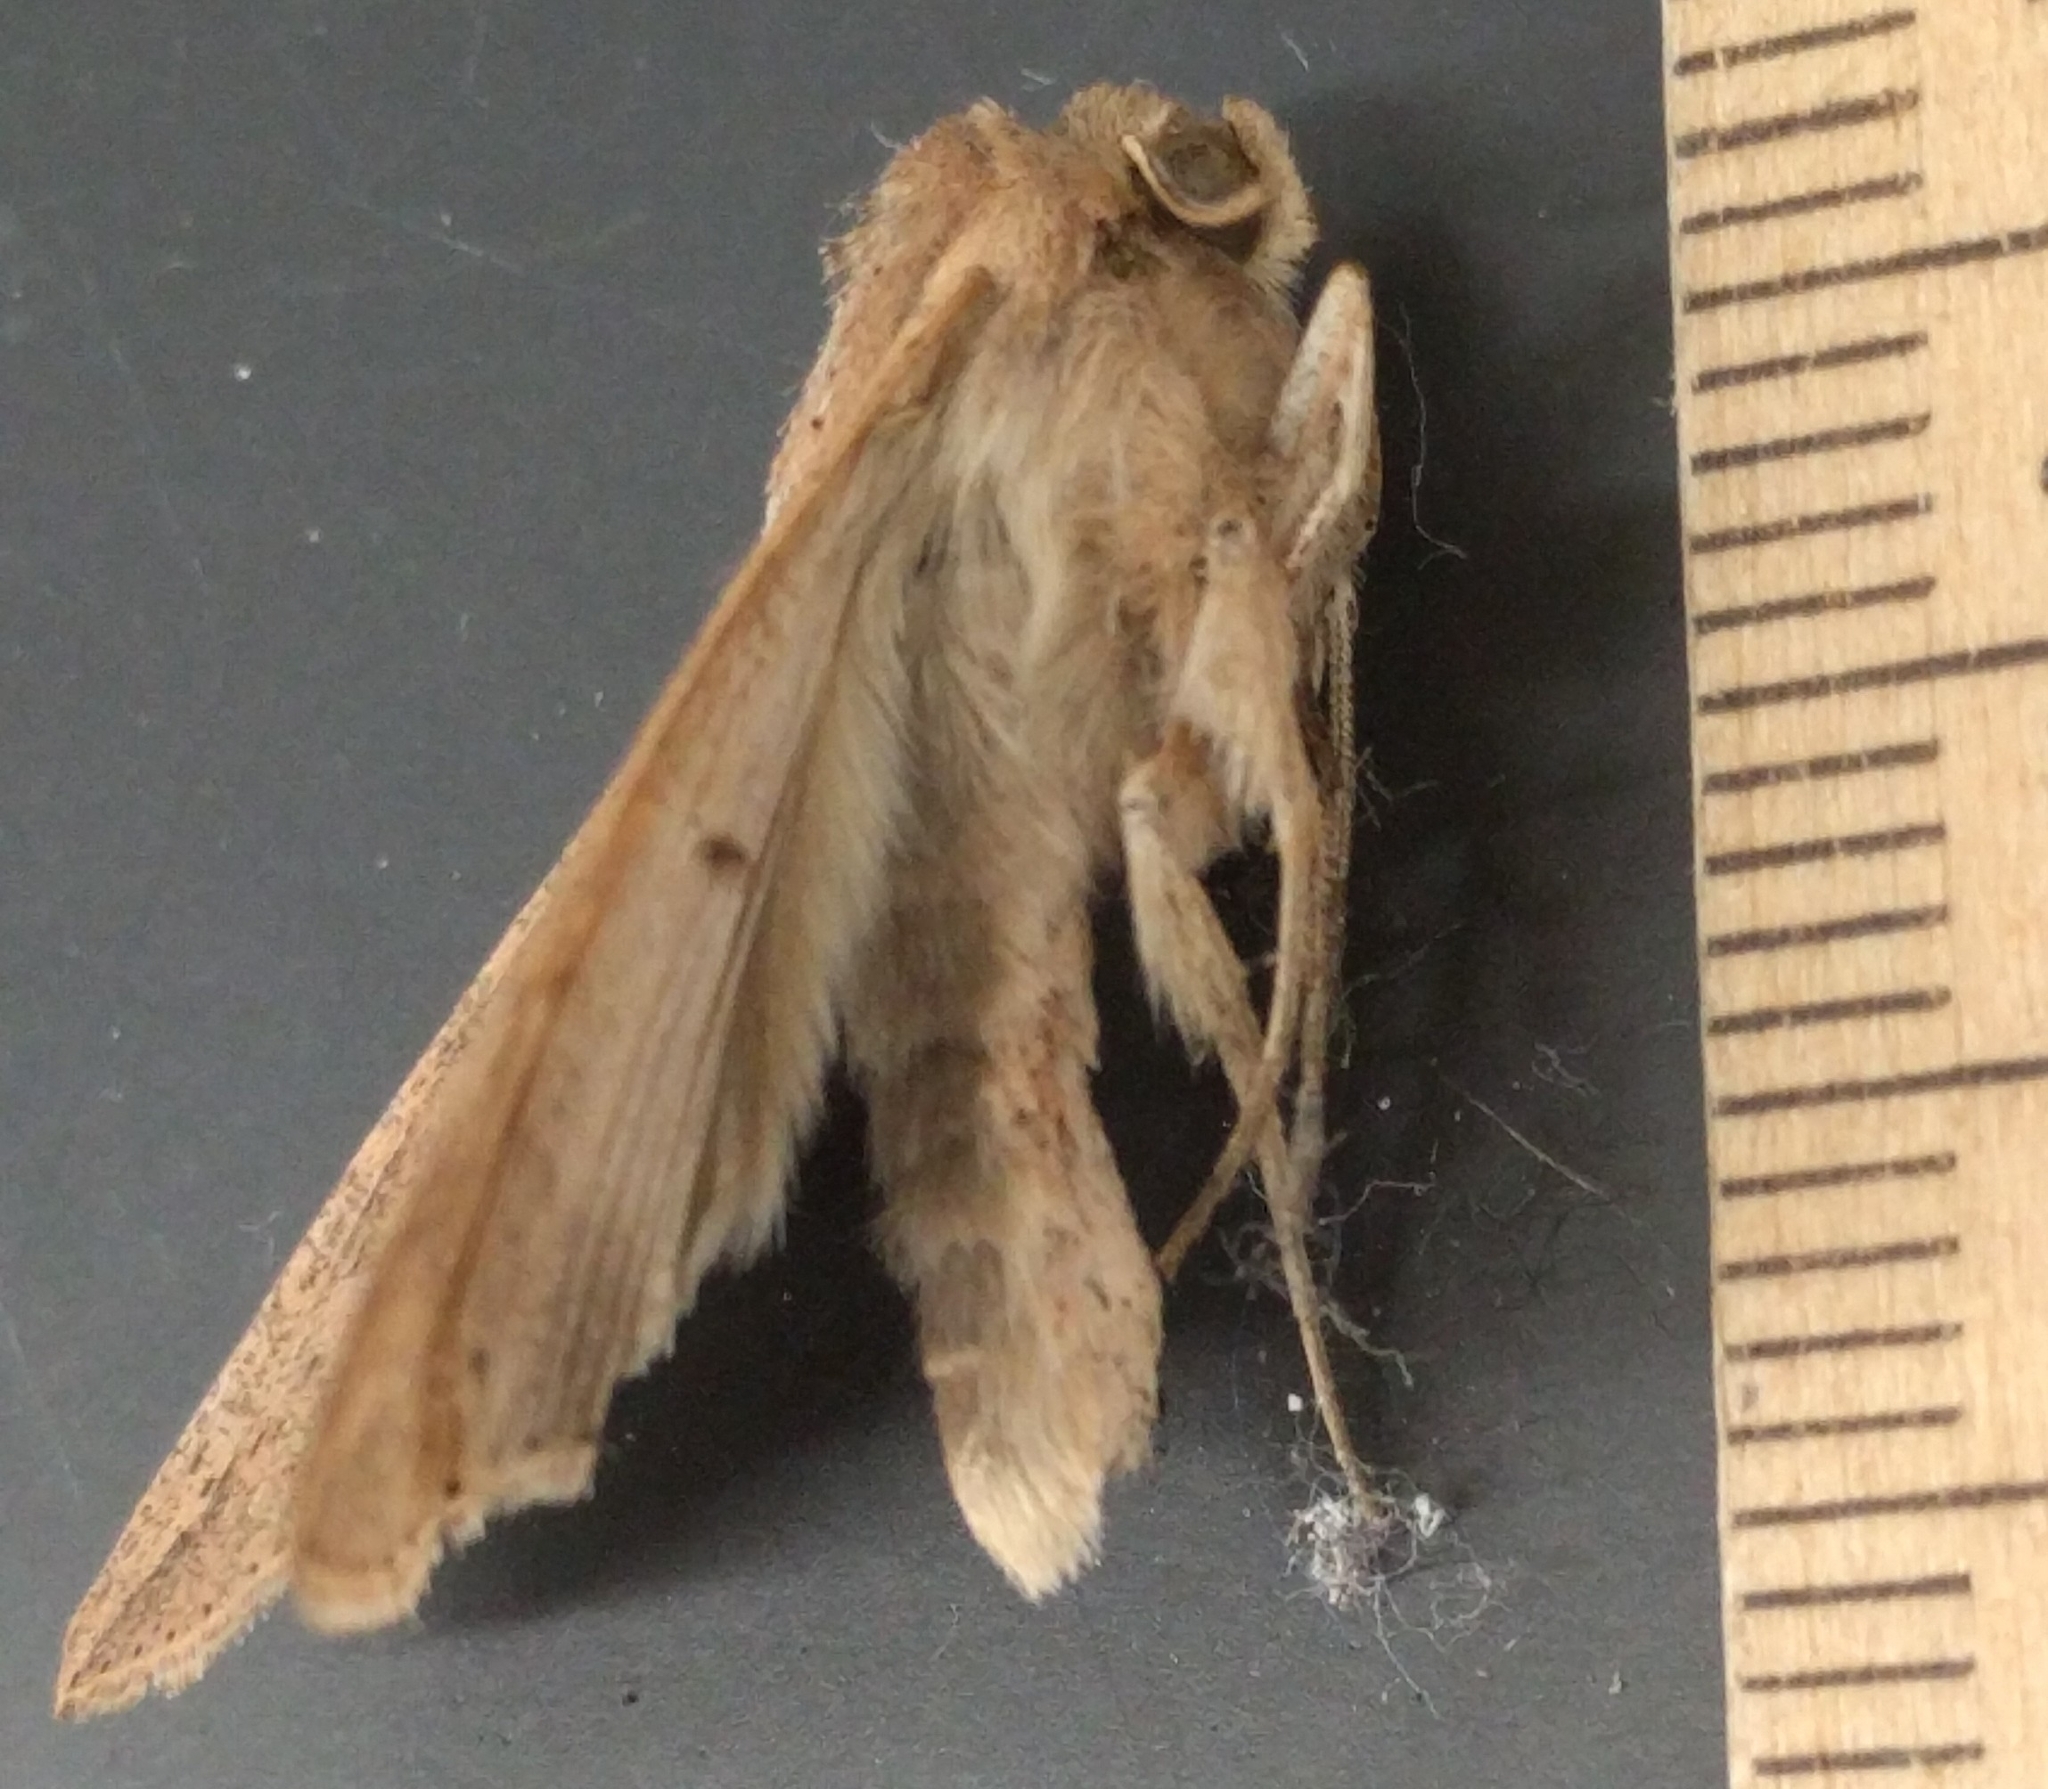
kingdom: Animalia
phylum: Arthropoda
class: Insecta
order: Lepidoptera
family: Noctuidae
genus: Mythimna
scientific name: Mythimna unipuncta
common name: White-speck
